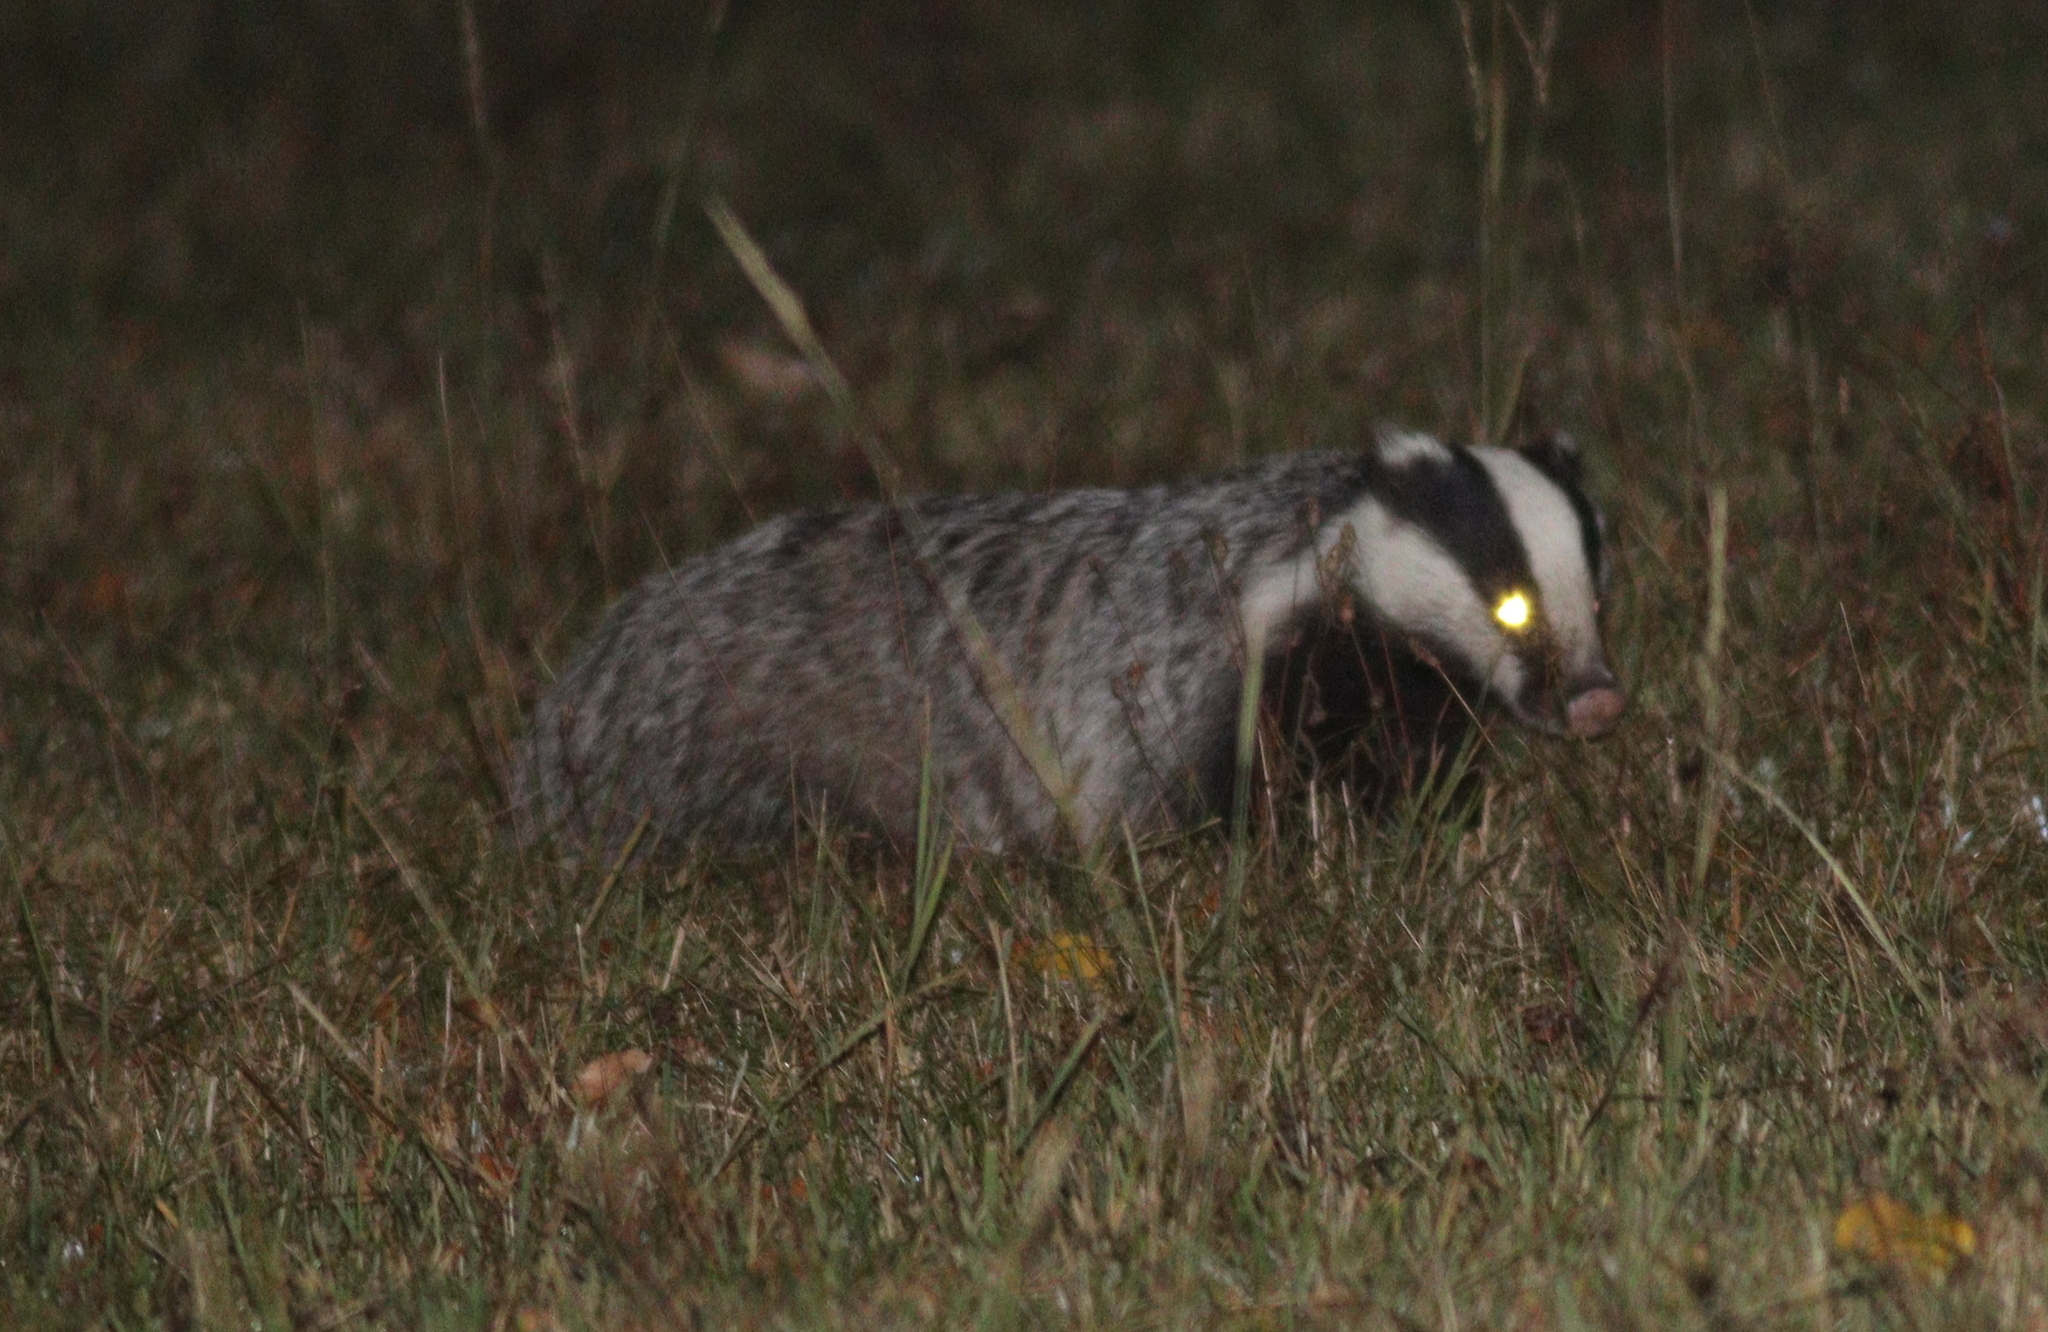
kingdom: Animalia
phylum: Chordata
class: Mammalia
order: Carnivora
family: Mustelidae
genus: Meles
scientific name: Meles meles
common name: Eurasian badger
